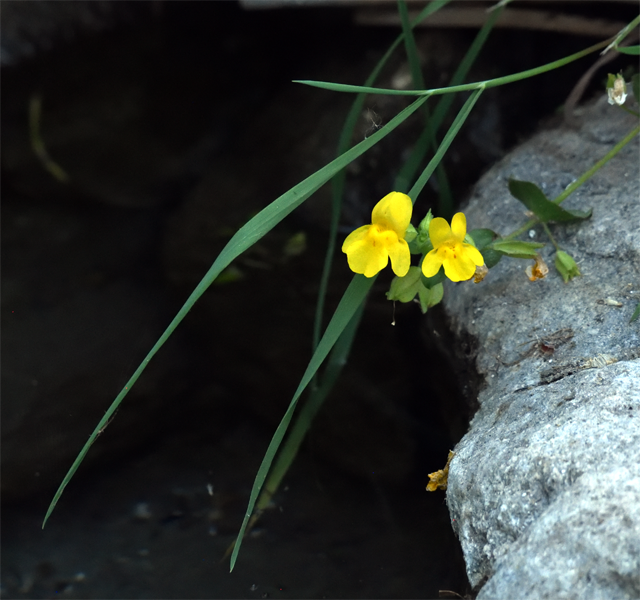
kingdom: Plantae
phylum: Tracheophyta
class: Magnoliopsida
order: Lamiales
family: Phrymaceae
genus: Erythranthe
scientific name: Erythranthe guttata
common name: Monkeyflower
